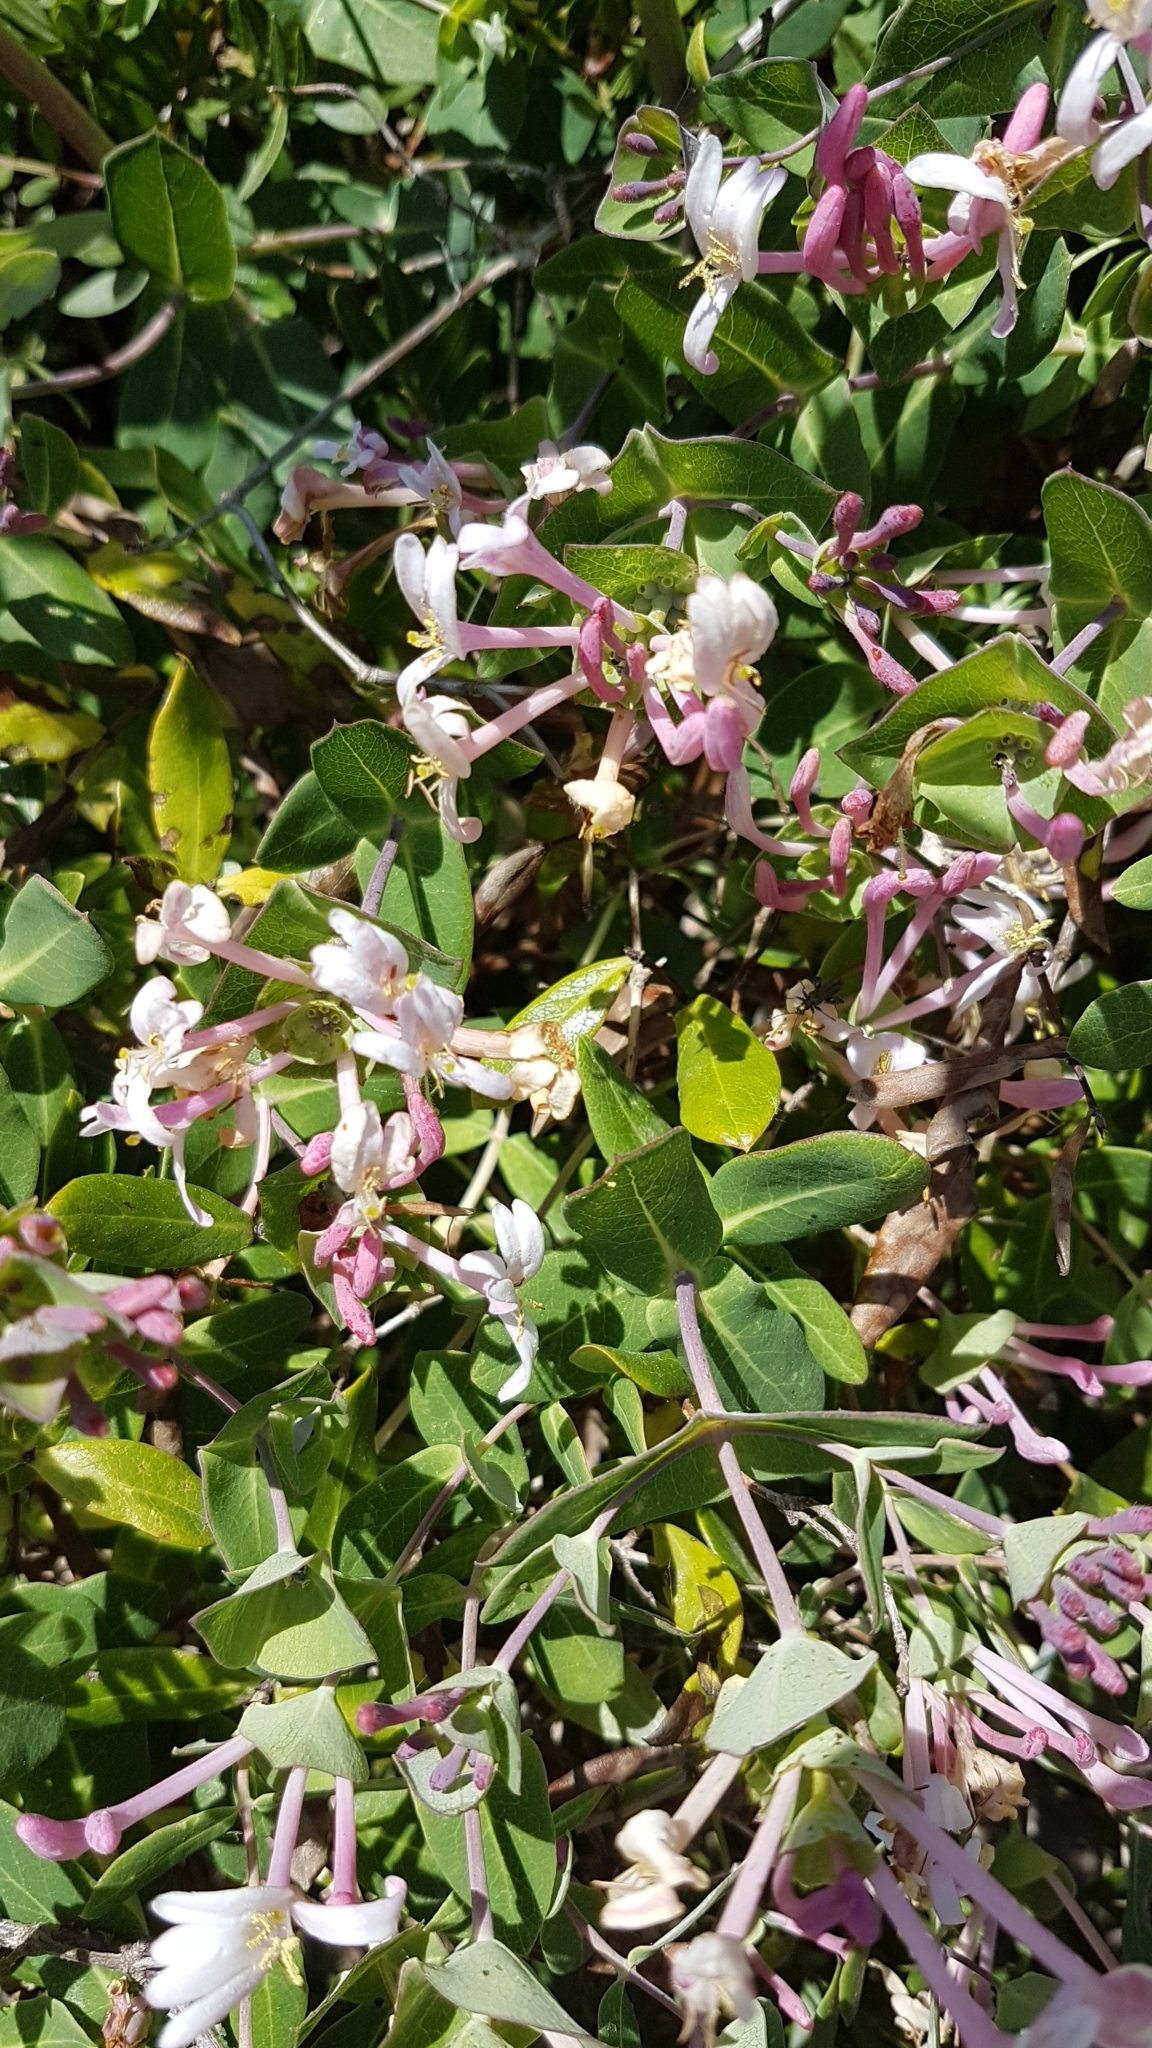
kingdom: Plantae
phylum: Tracheophyta
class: Magnoliopsida
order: Dipsacales
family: Caprifoliaceae
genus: Lonicera
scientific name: Lonicera implexa
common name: Minorca honeysuckle
